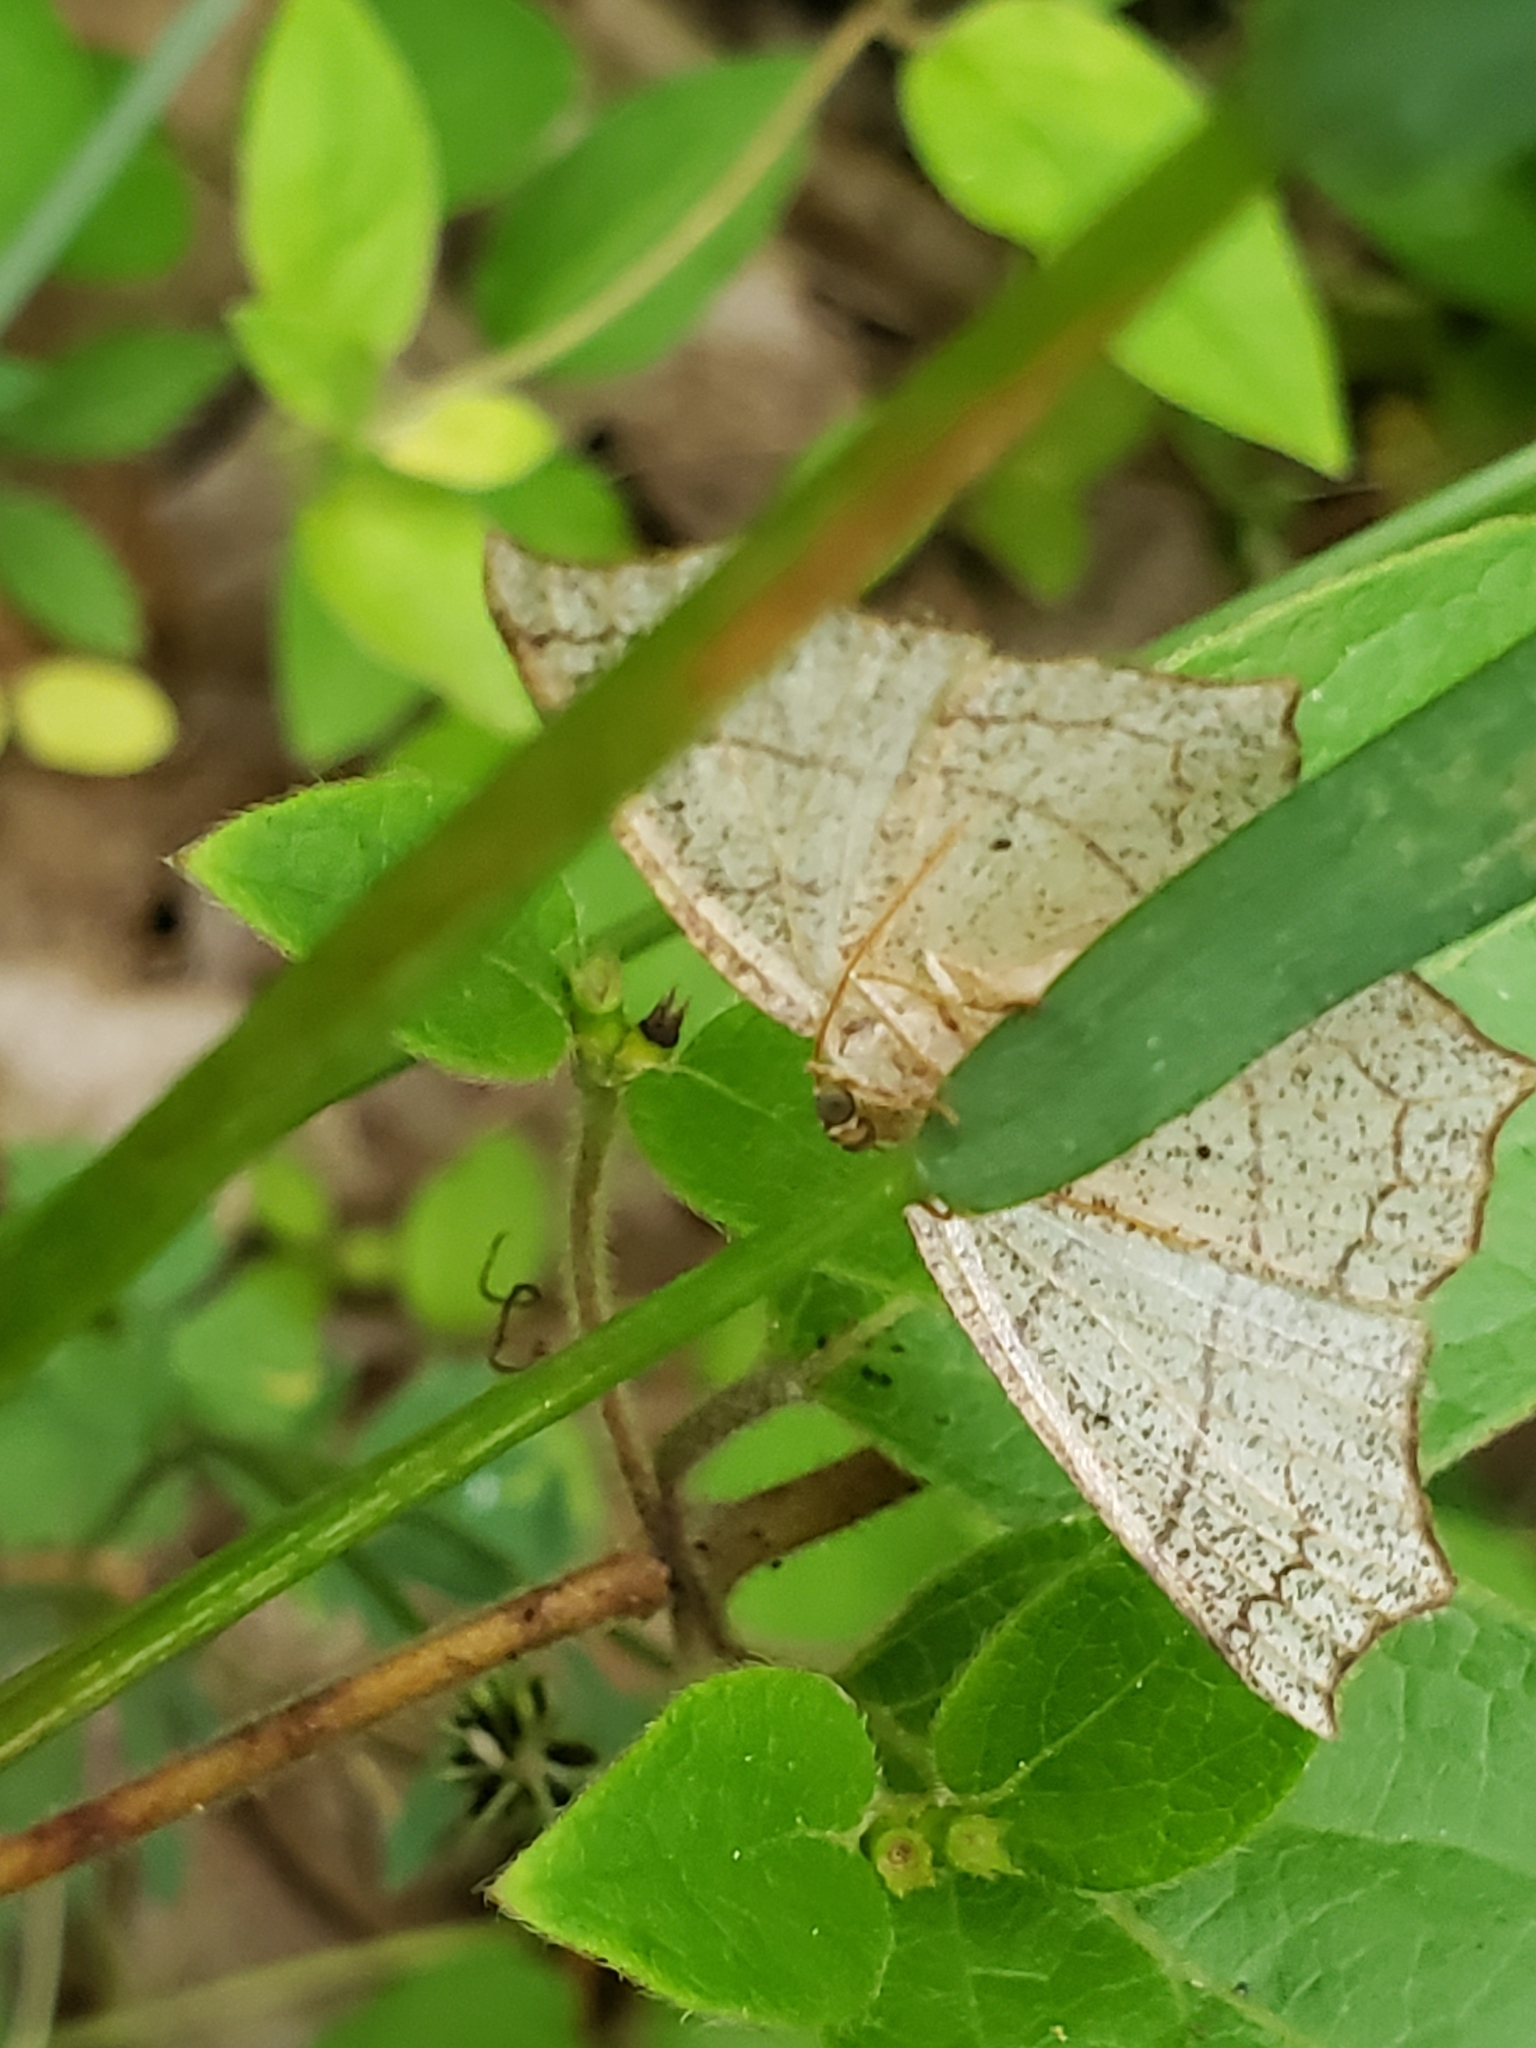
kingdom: Animalia
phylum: Arthropoda
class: Insecta
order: Lepidoptera
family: Geometridae
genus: Besma
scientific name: Besma quercivoraria
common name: Oak besma
